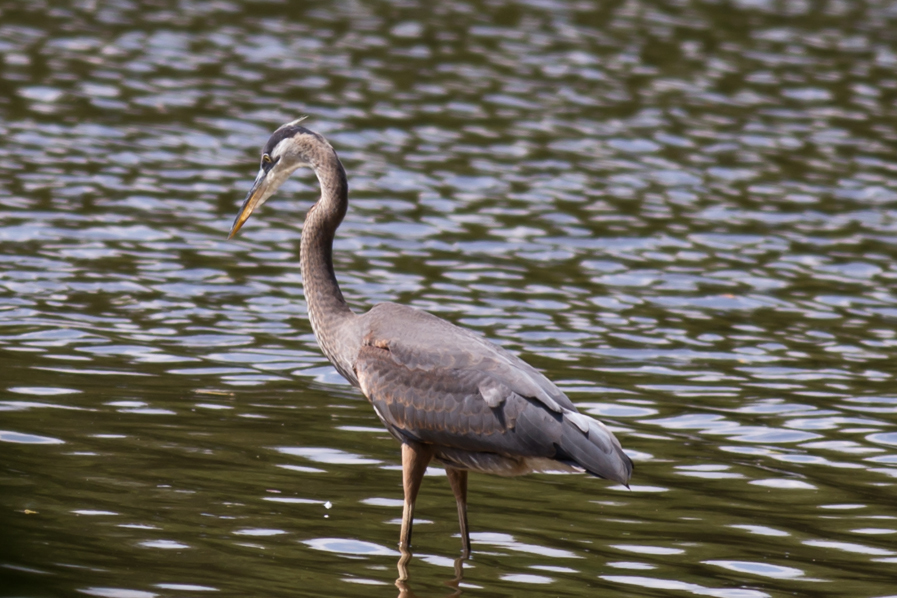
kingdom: Animalia
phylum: Chordata
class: Aves
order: Pelecaniformes
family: Ardeidae
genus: Ardea
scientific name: Ardea herodias
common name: Great blue heron
